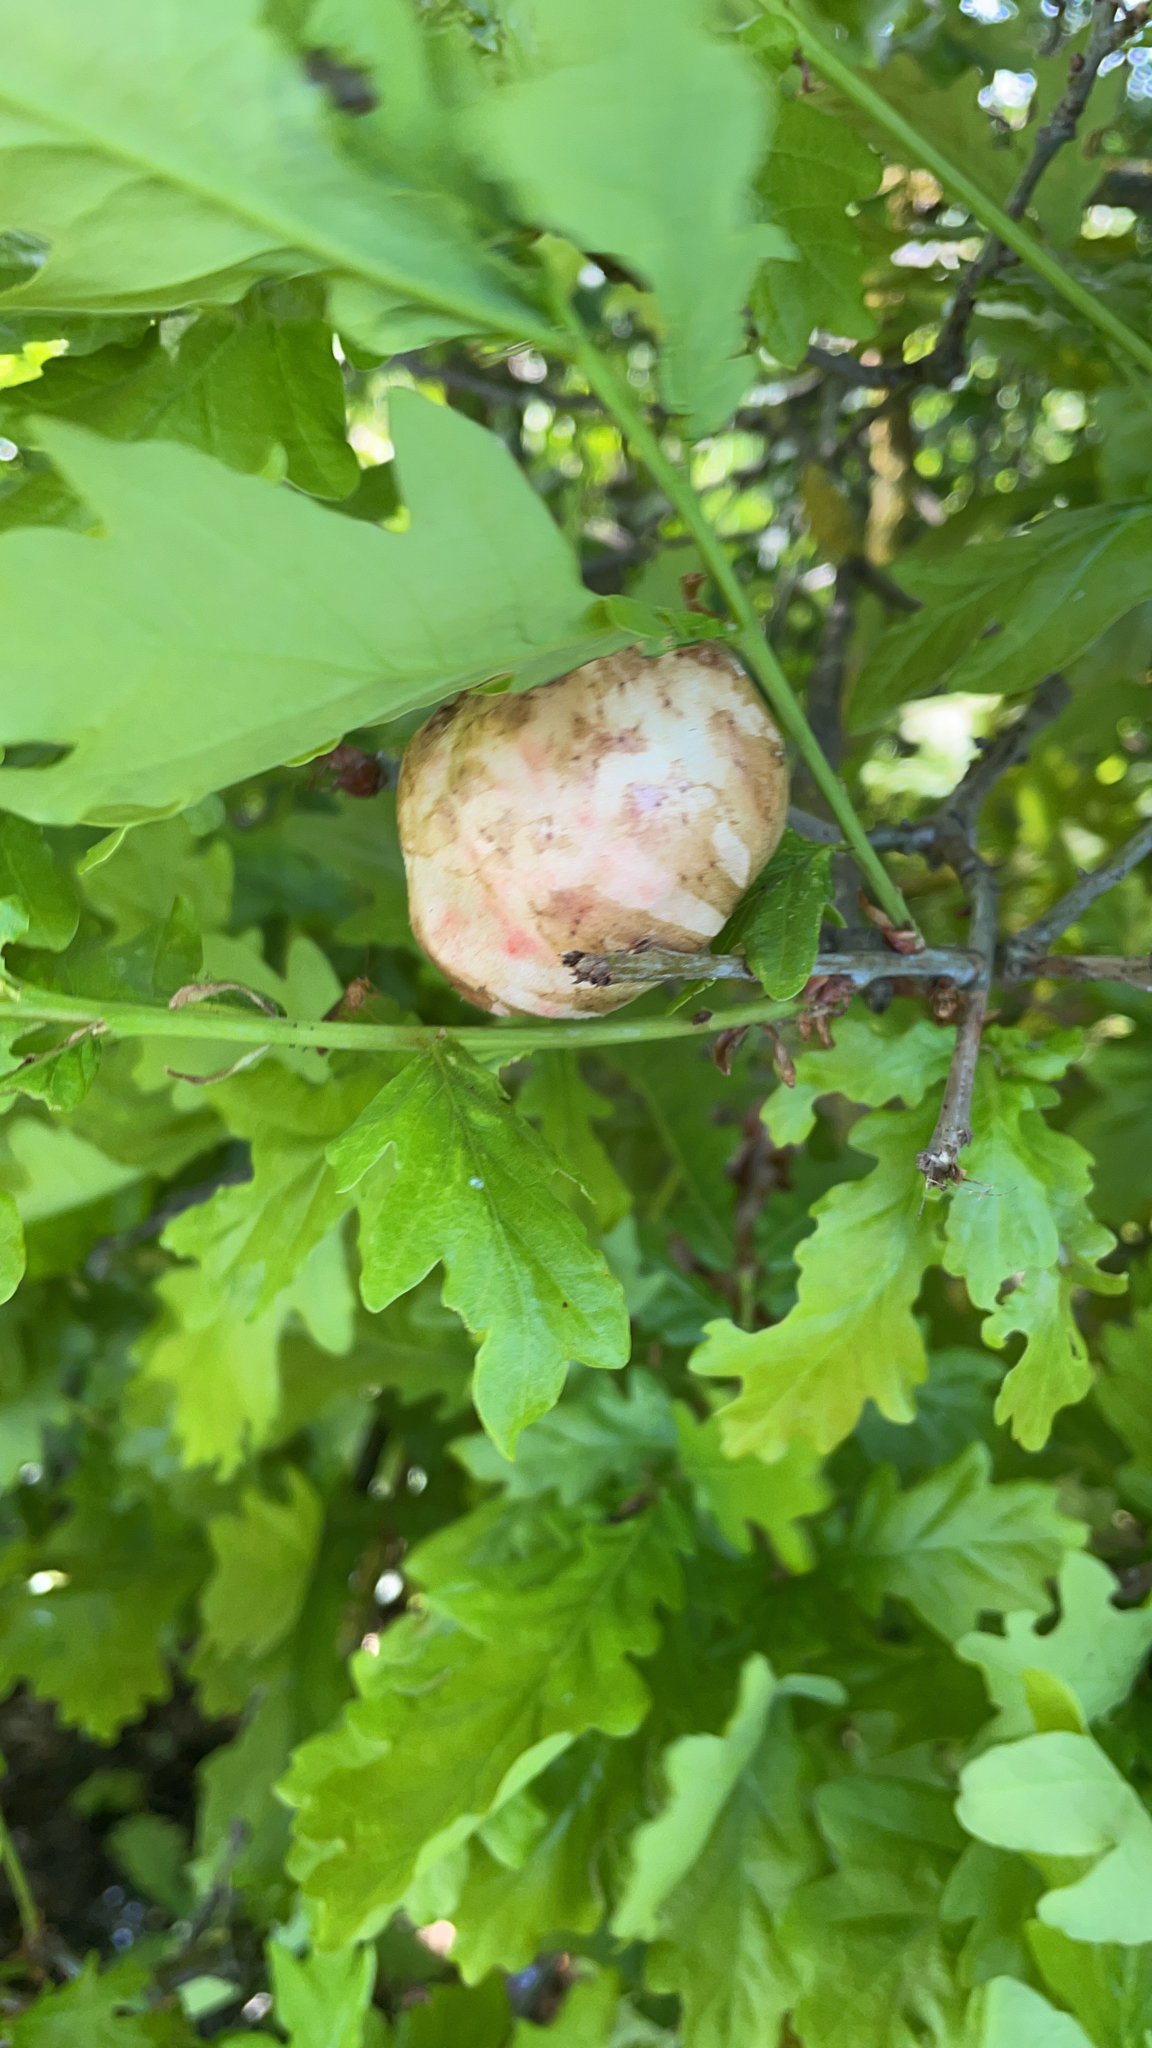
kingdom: Animalia
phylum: Arthropoda
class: Insecta
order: Hymenoptera
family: Cynipidae
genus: Biorhiza
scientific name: Biorhiza pallida
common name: Oak apple
